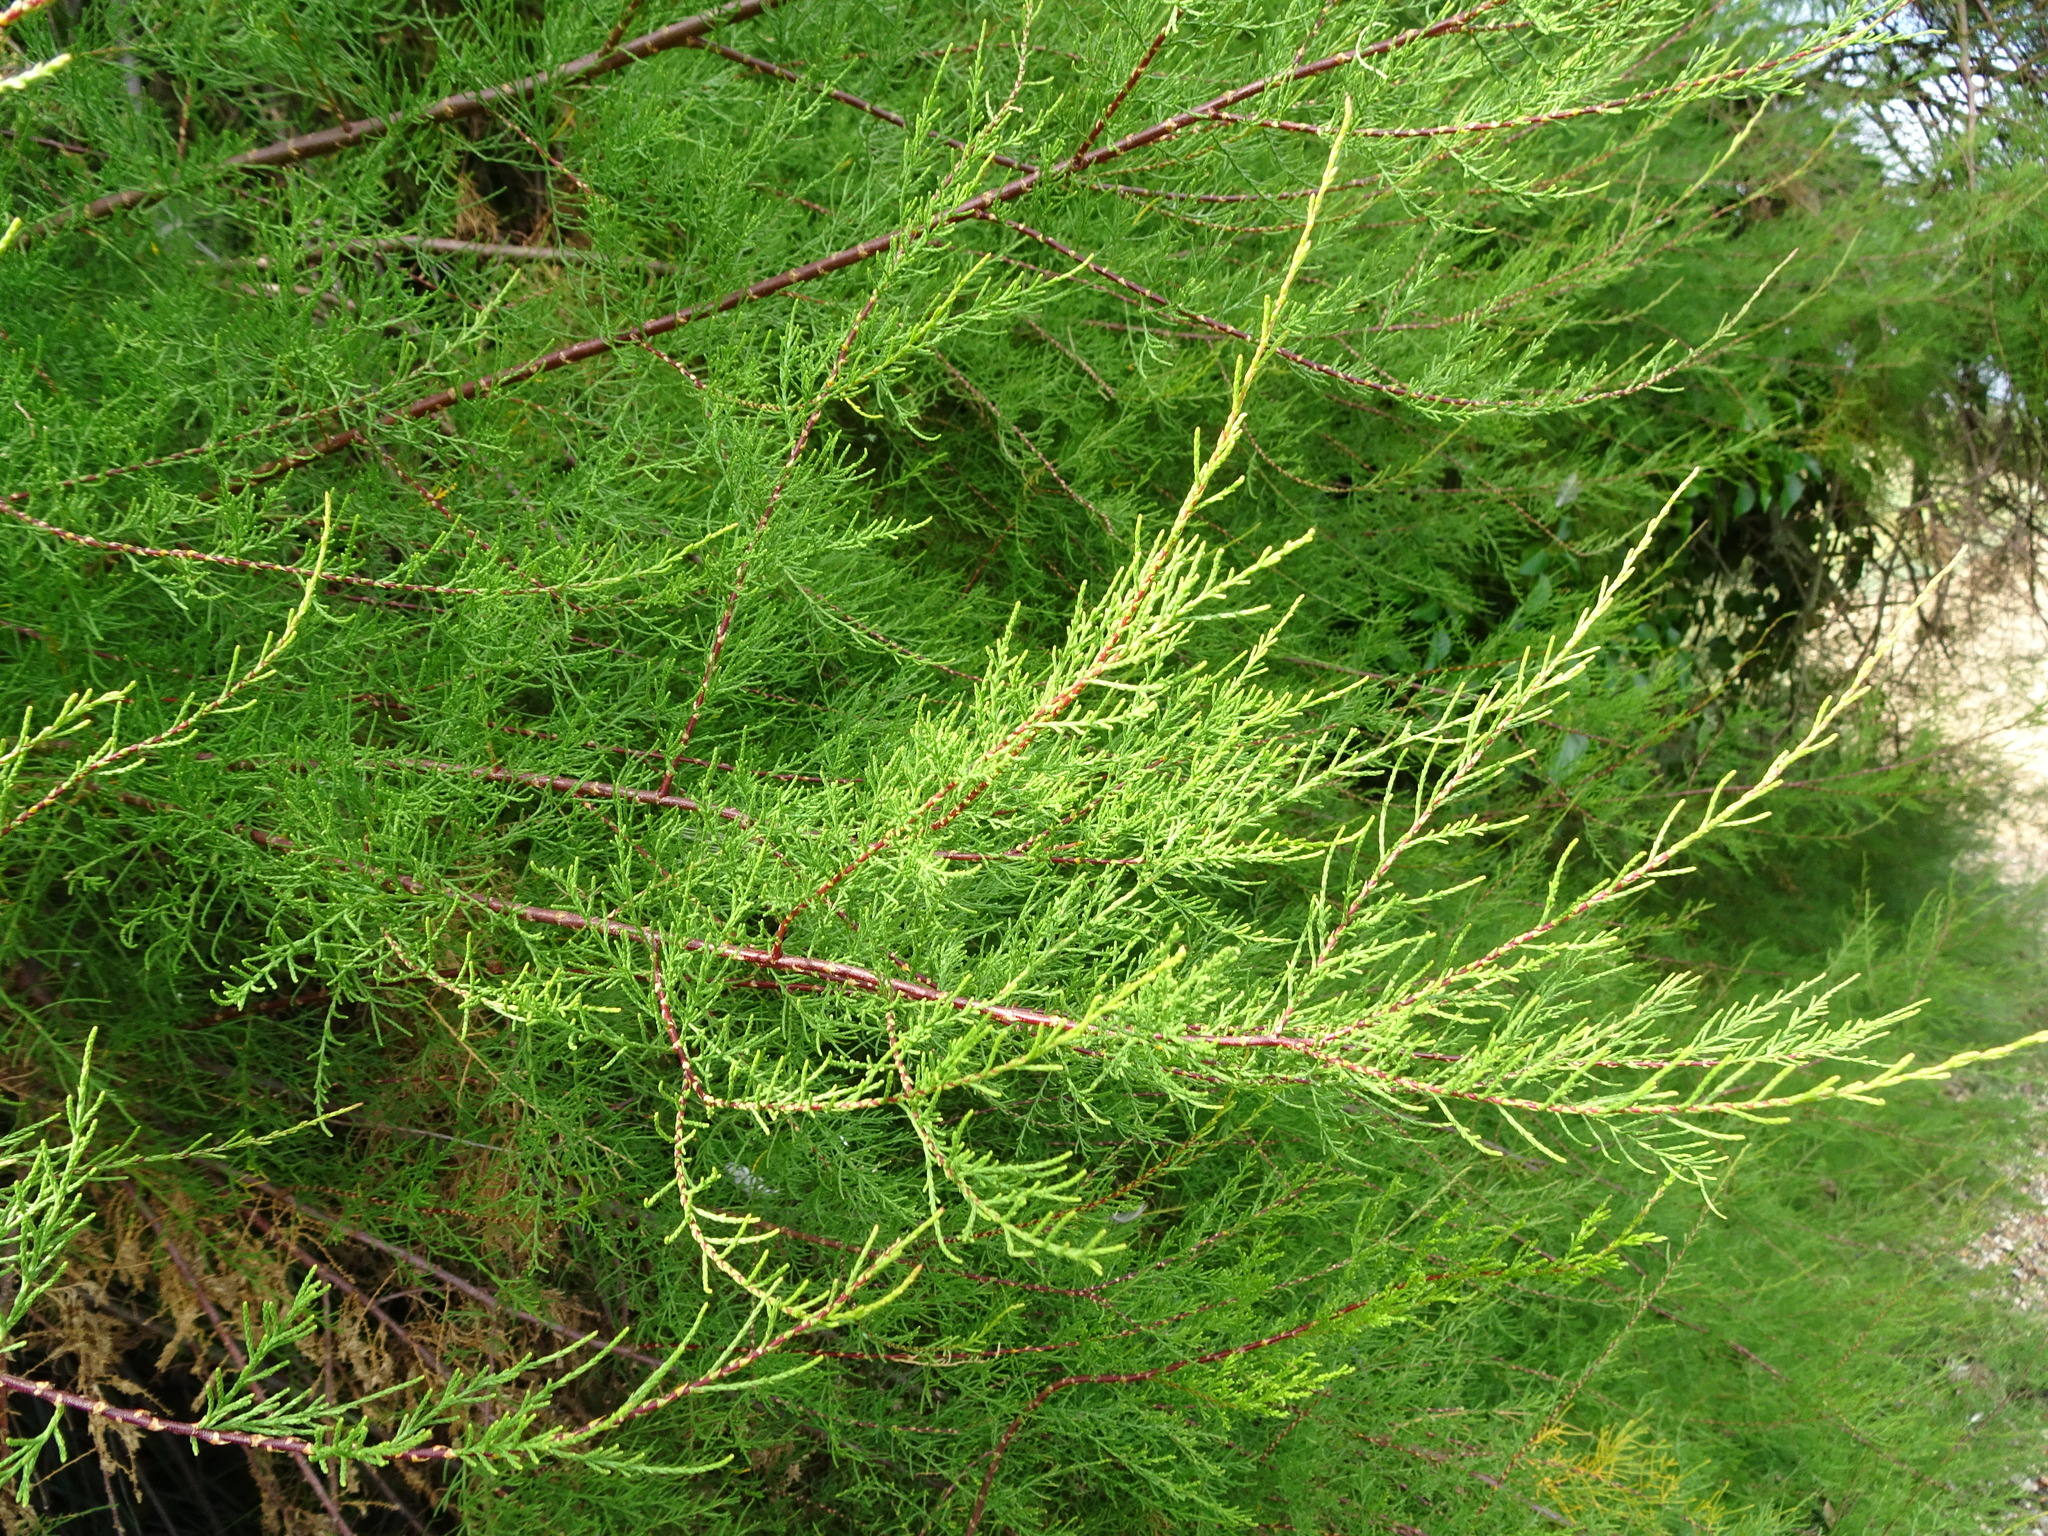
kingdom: Plantae
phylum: Tracheophyta
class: Magnoliopsida
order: Caryophyllales
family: Tamaricaceae
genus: Tamarix
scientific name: Tamarix gallica
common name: Tamarisk
